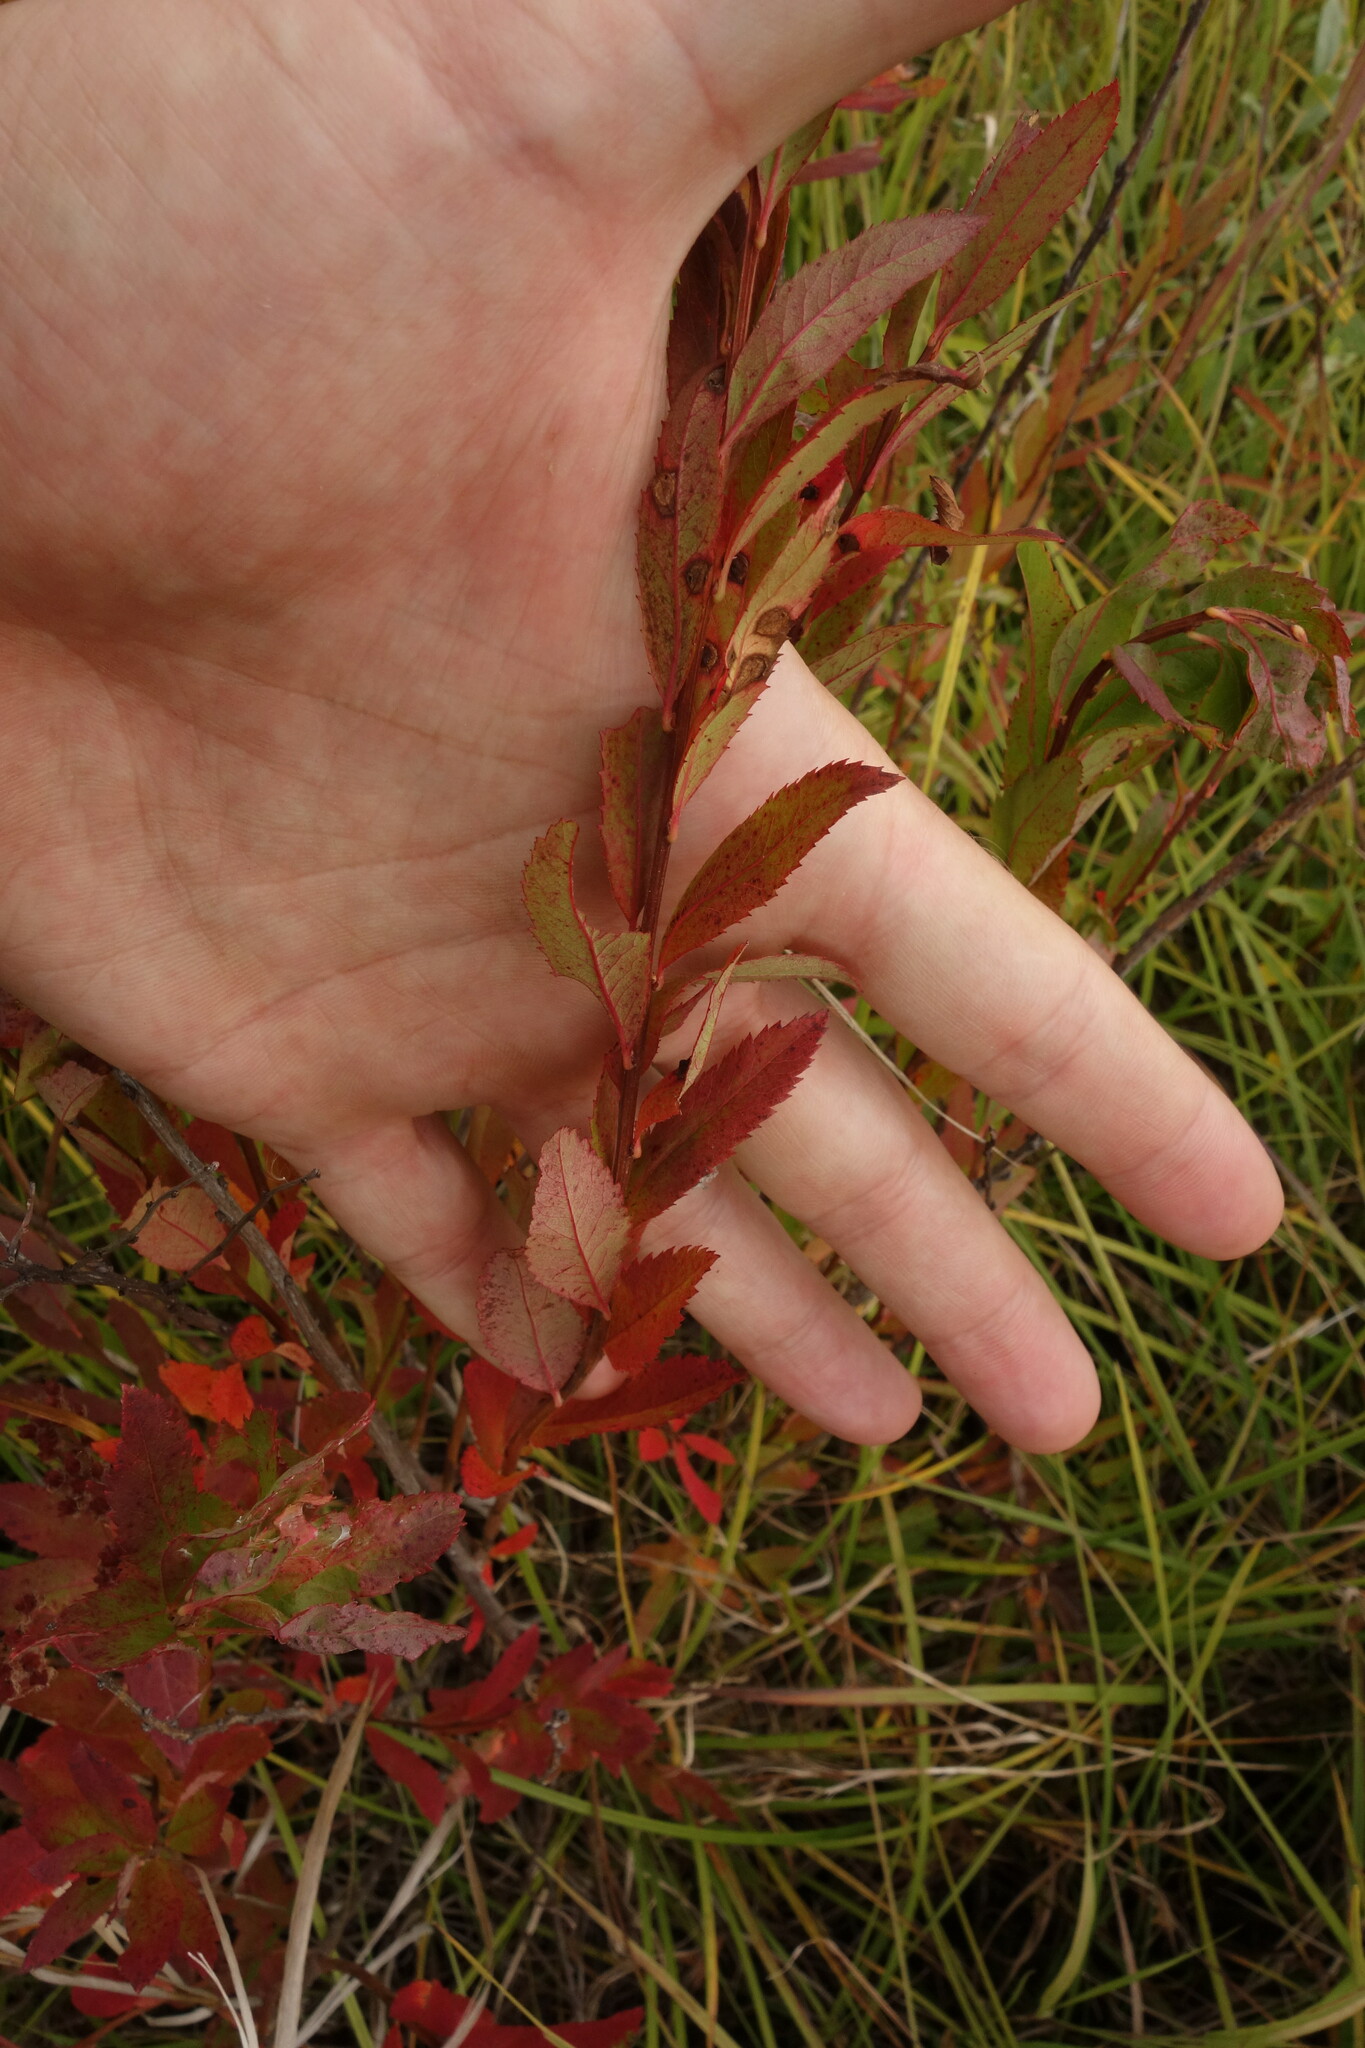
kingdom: Plantae
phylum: Tracheophyta
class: Magnoliopsida
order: Rosales
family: Rosaceae
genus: Spiraea
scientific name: Spiraea salicifolia
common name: Bridewort
